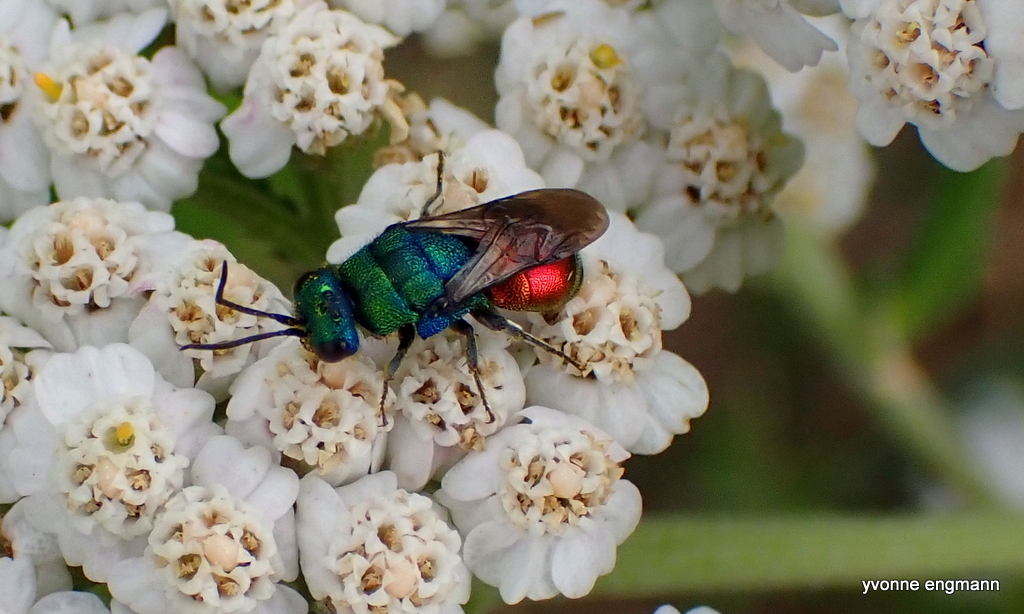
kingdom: Animalia
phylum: Arthropoda
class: Insecta
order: Hymenoptera
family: Chrysididae
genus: Hedychrum
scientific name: Hedychrum
